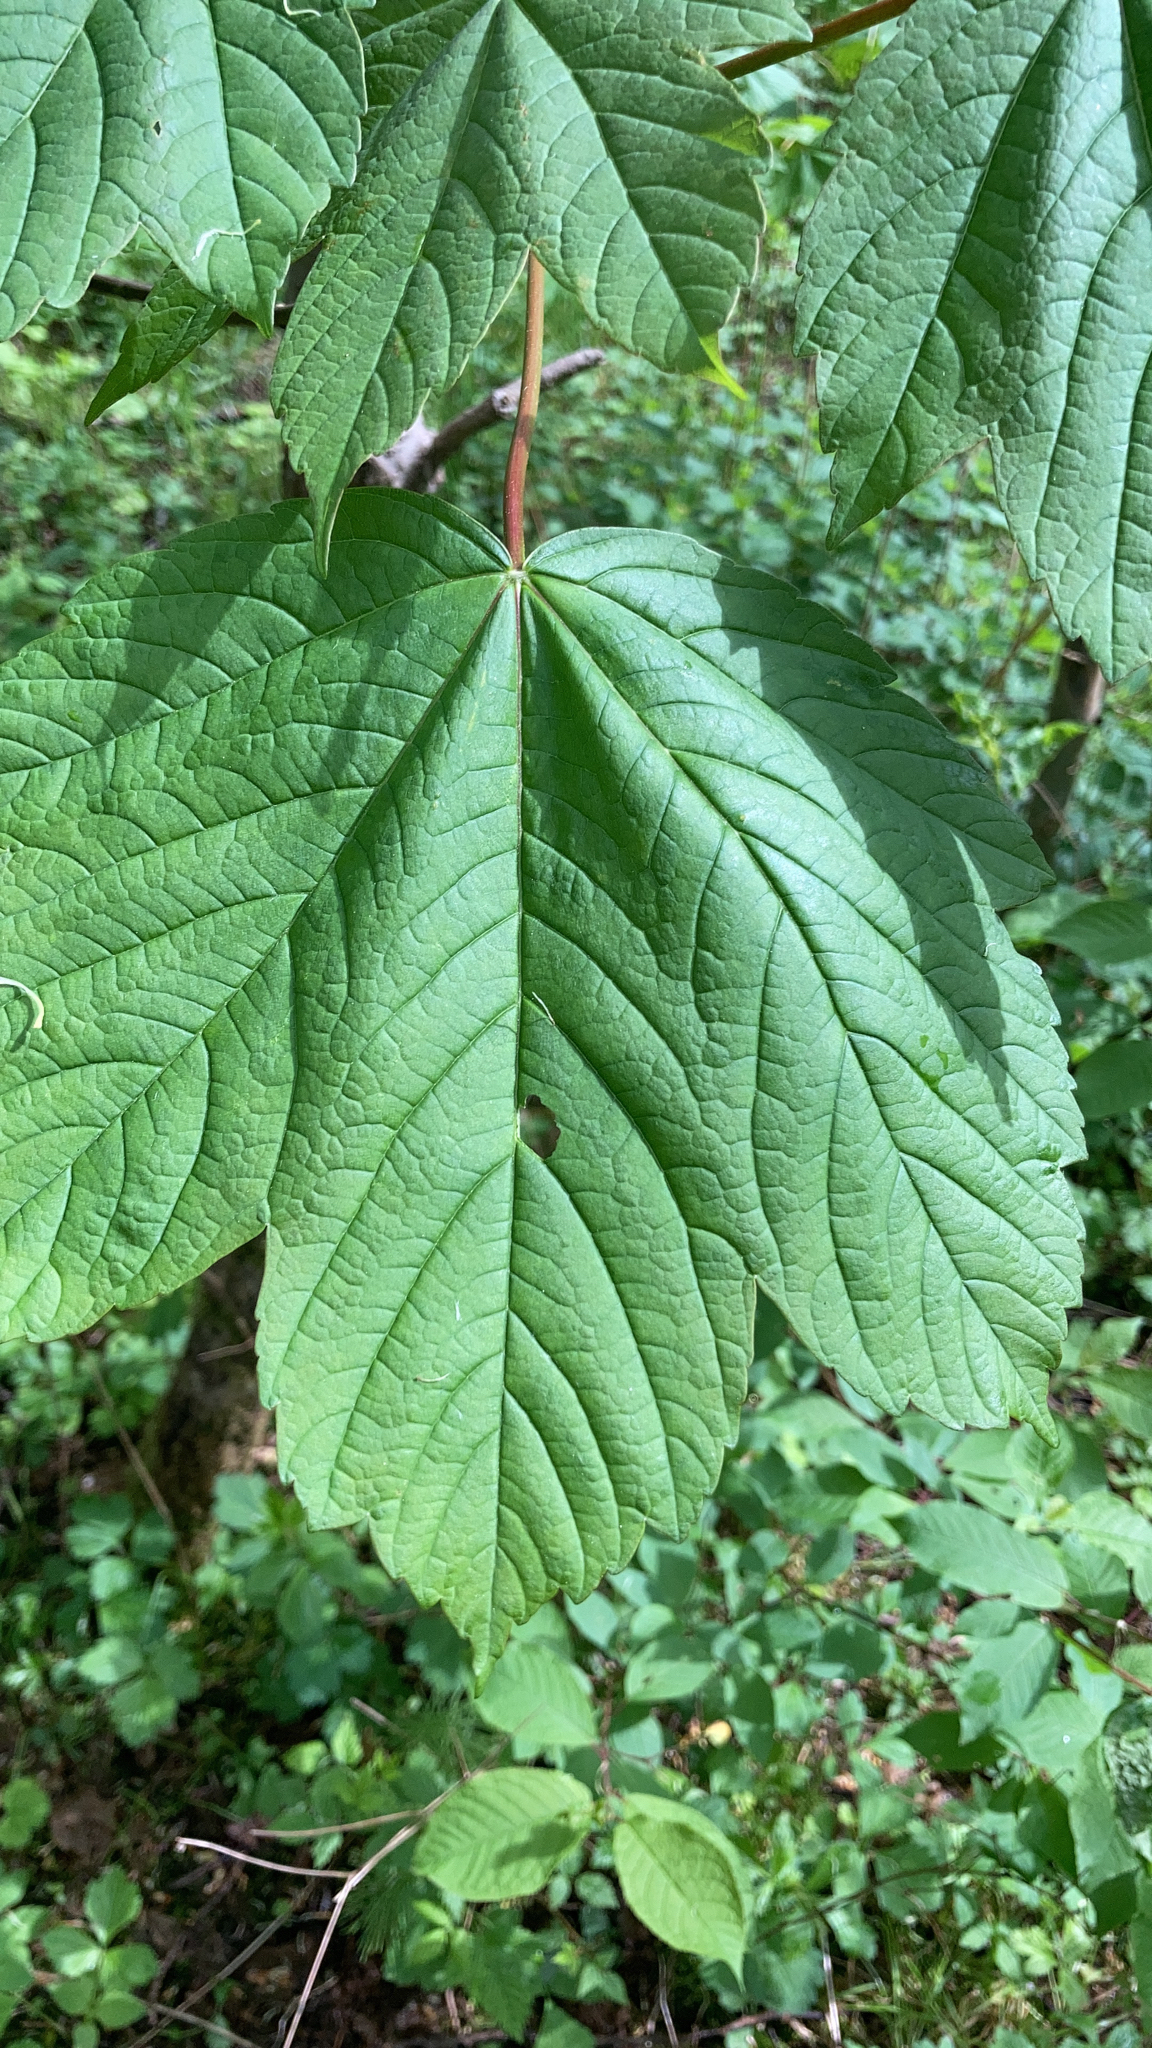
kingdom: Plantae
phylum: Tracheophyta
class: Magnoliopsida
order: Sapindales
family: Sapindaceae
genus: Acer
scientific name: Acer pseudoplatanus
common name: Sycamore
